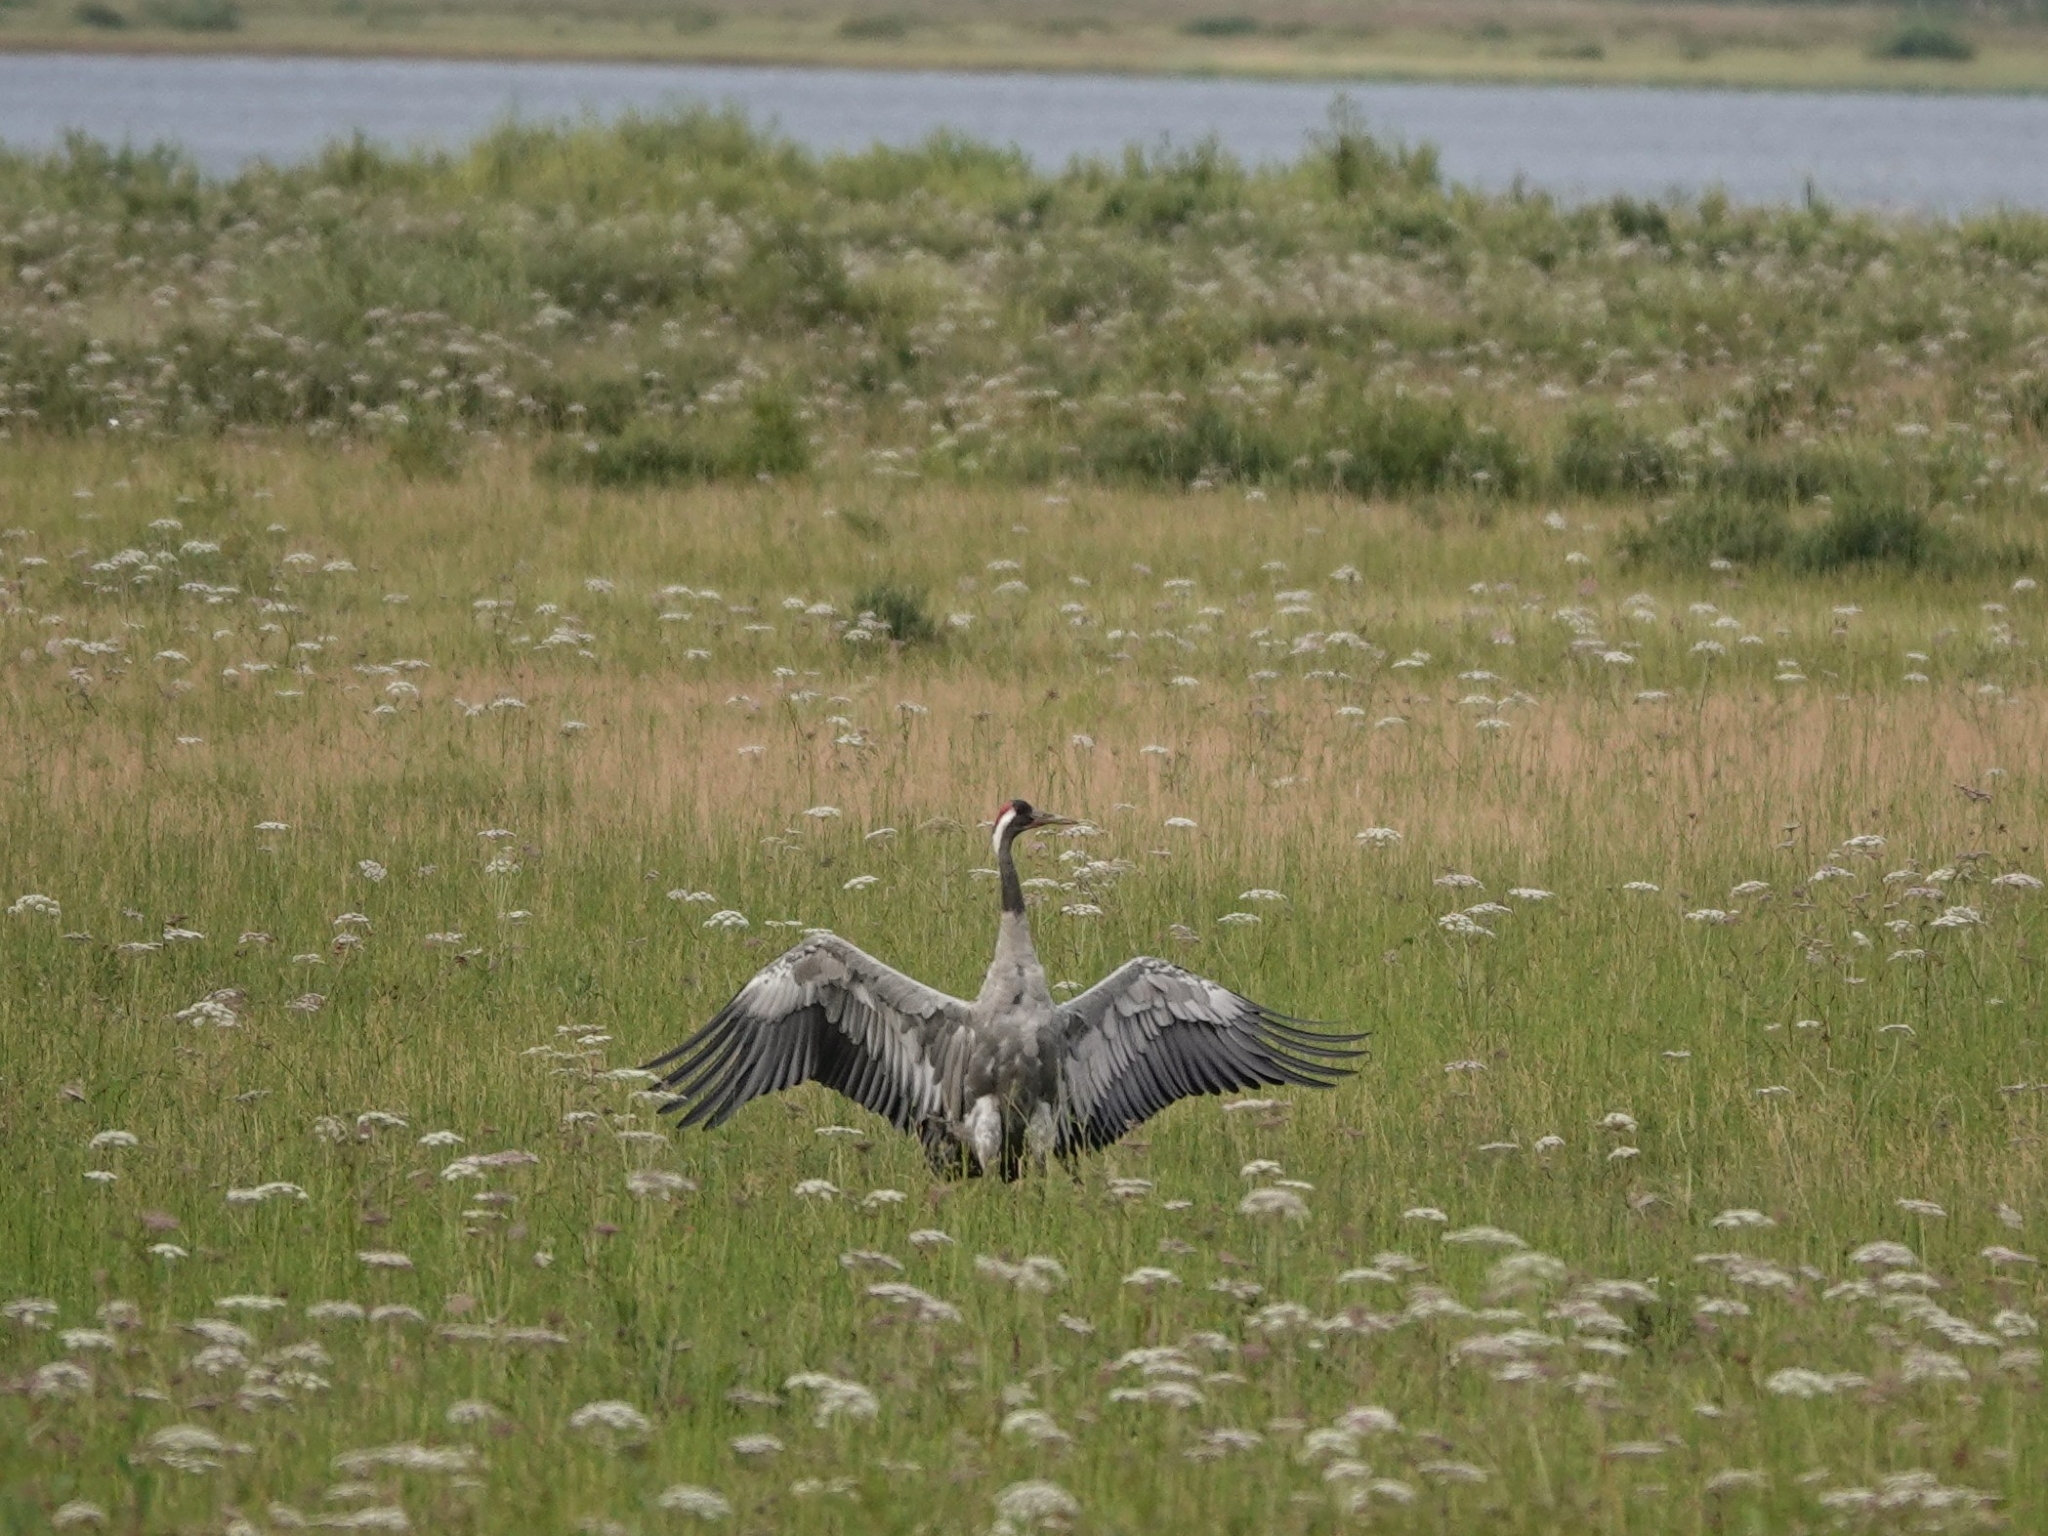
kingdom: Animalia
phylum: Chordata
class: Aves
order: Gruiformes
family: Gruidae
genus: Grus
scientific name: Grus grus
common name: Common crane
